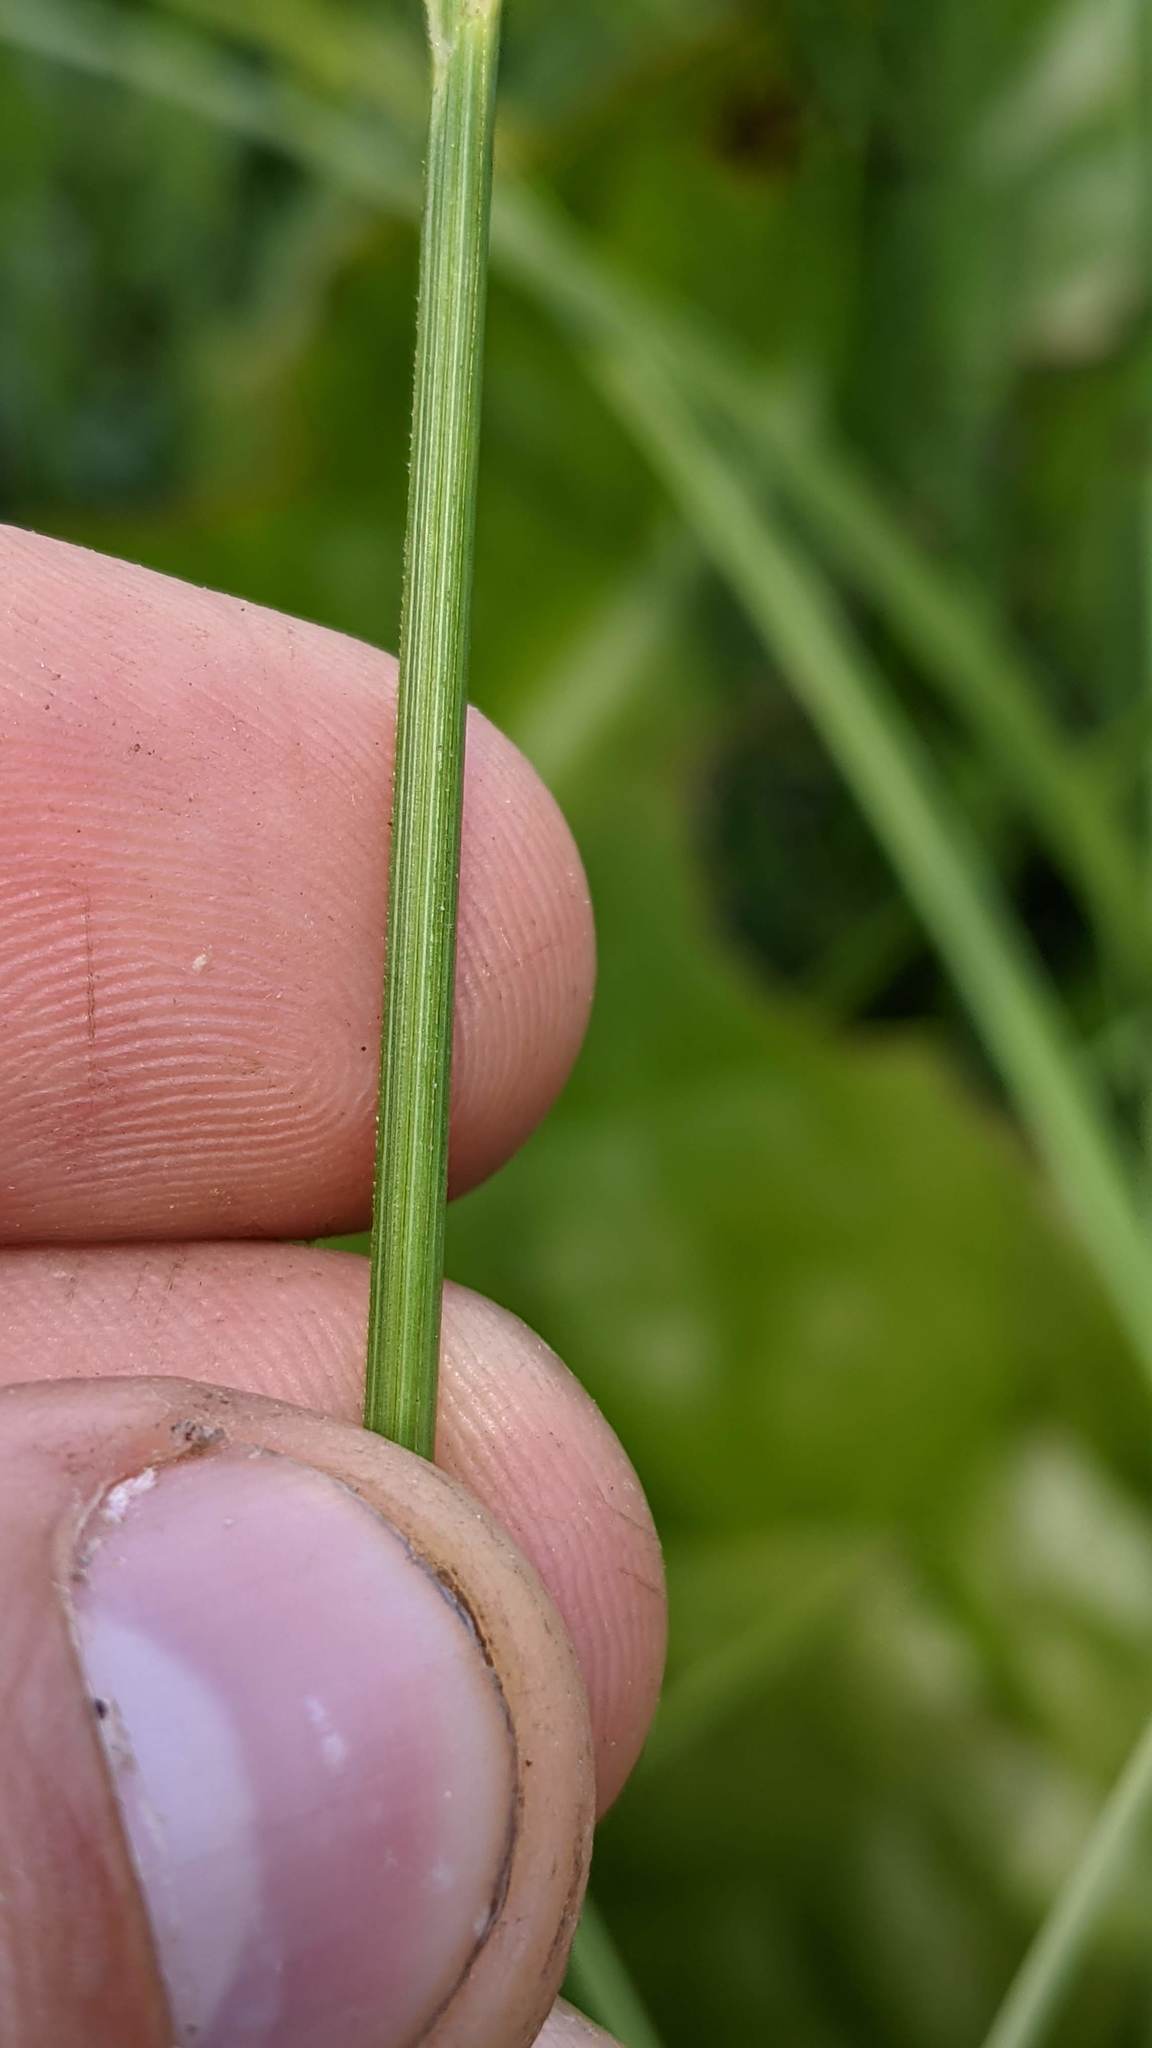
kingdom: Plantae
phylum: Tracheophyta
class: Liliopsida
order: Poales
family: Cyperaceae
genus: Carex
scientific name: Carex aquatilis
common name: Water sedge
